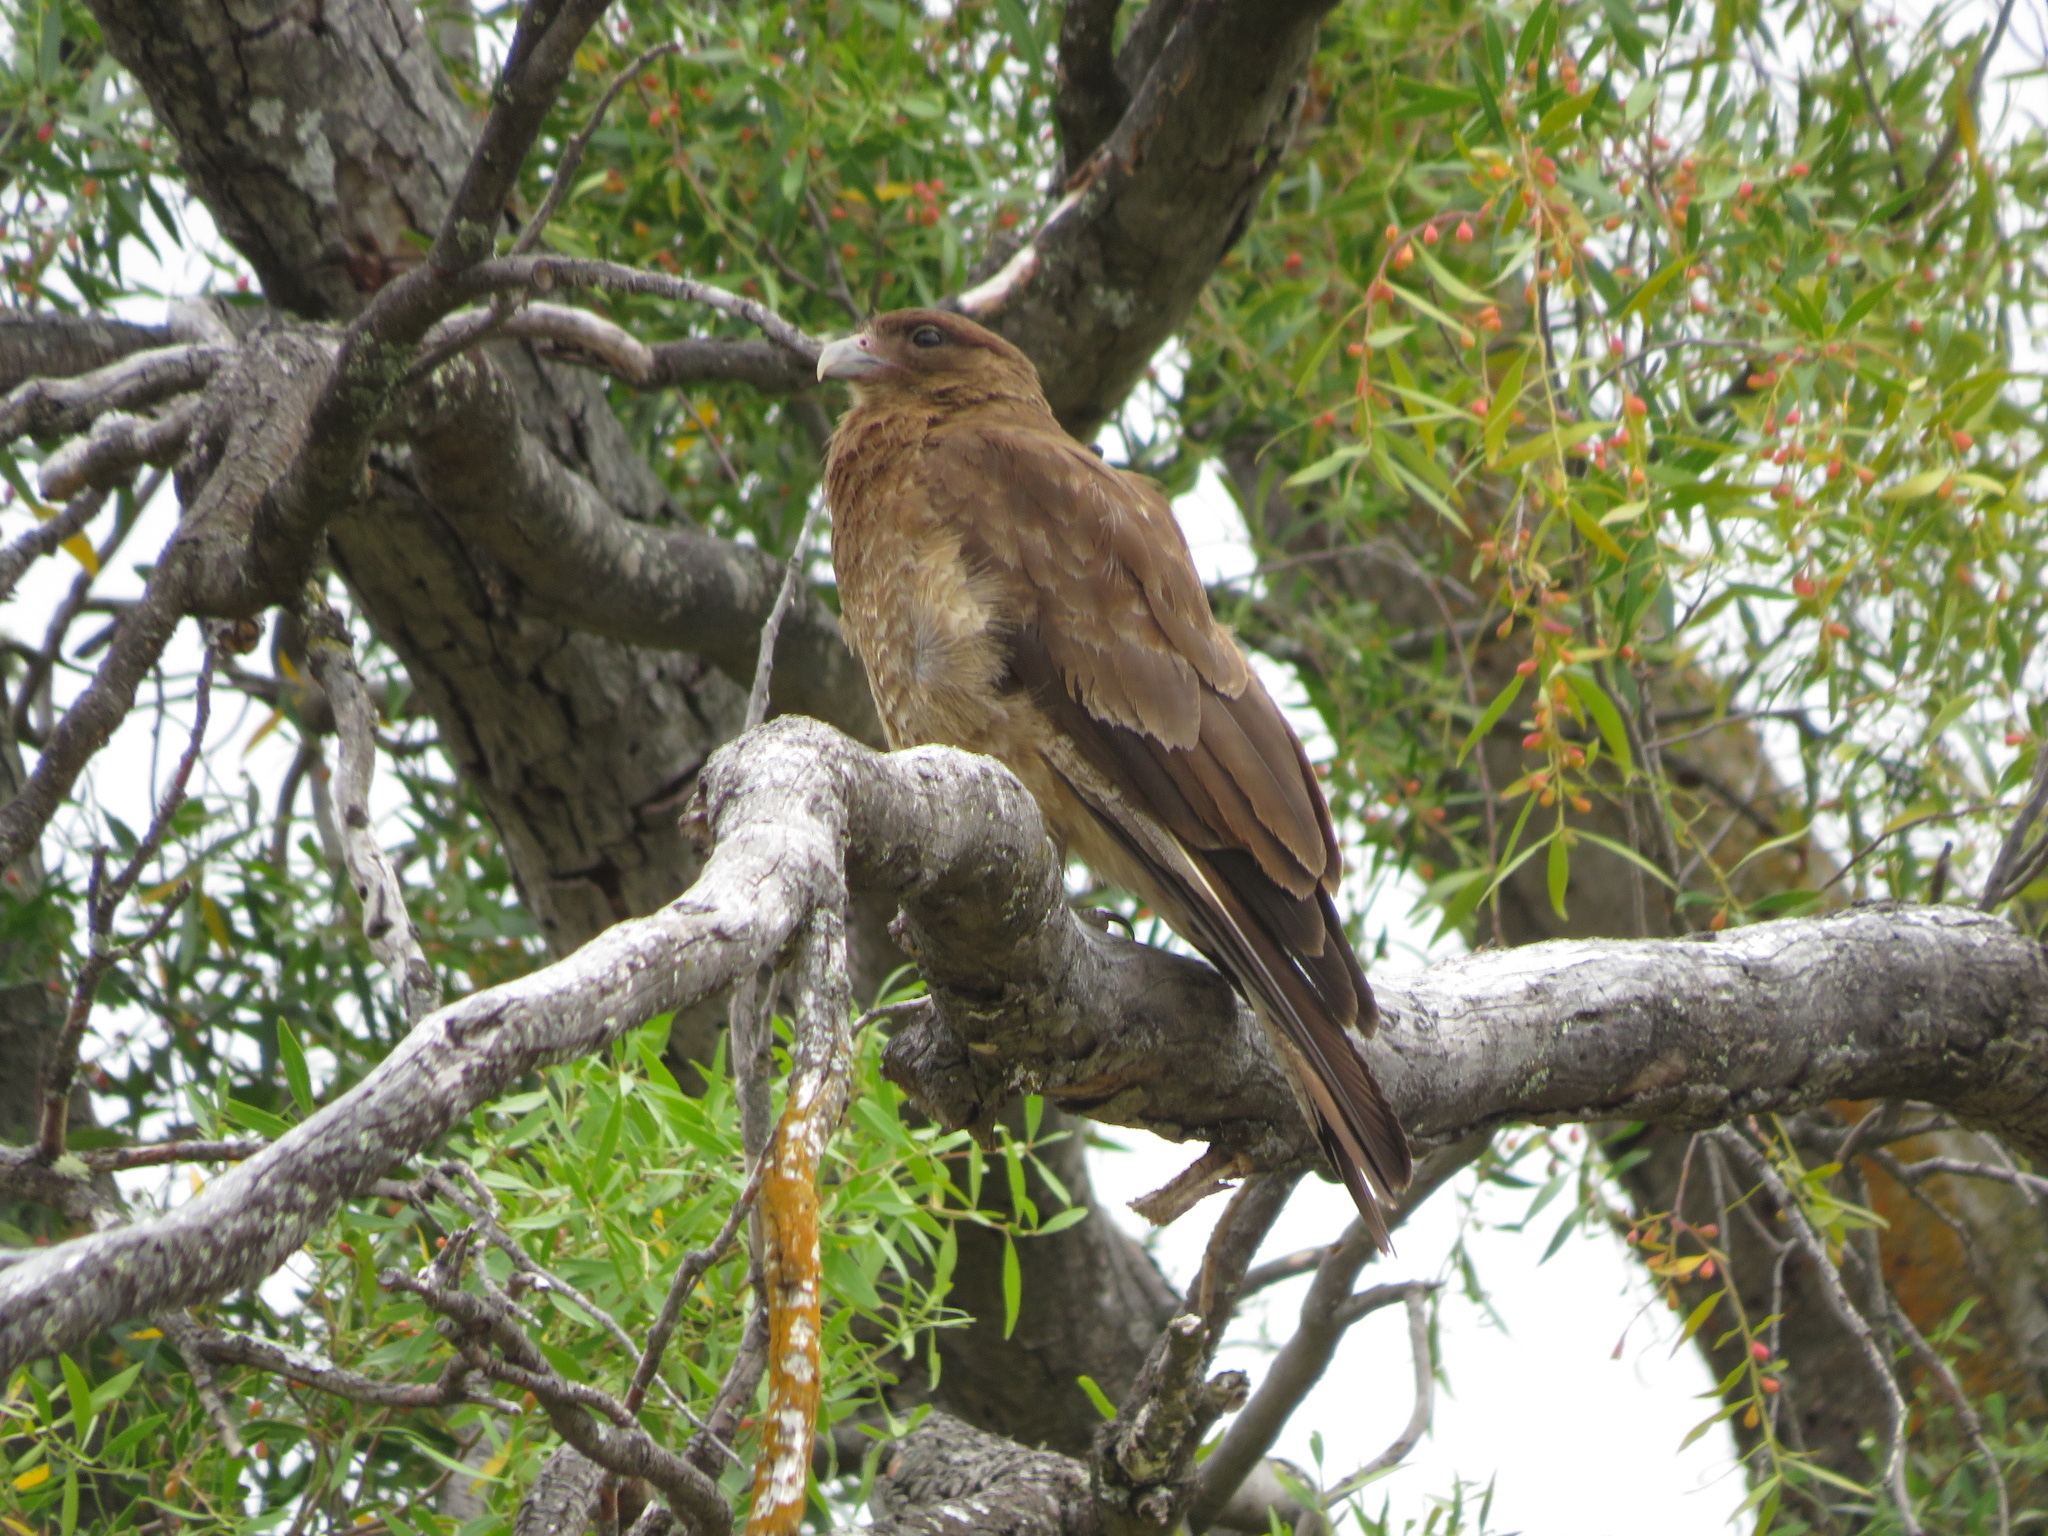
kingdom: Animalia
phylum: Chordata
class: Aves
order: Falconiformes
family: Falconidae
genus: Daptrius
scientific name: Daptrius
